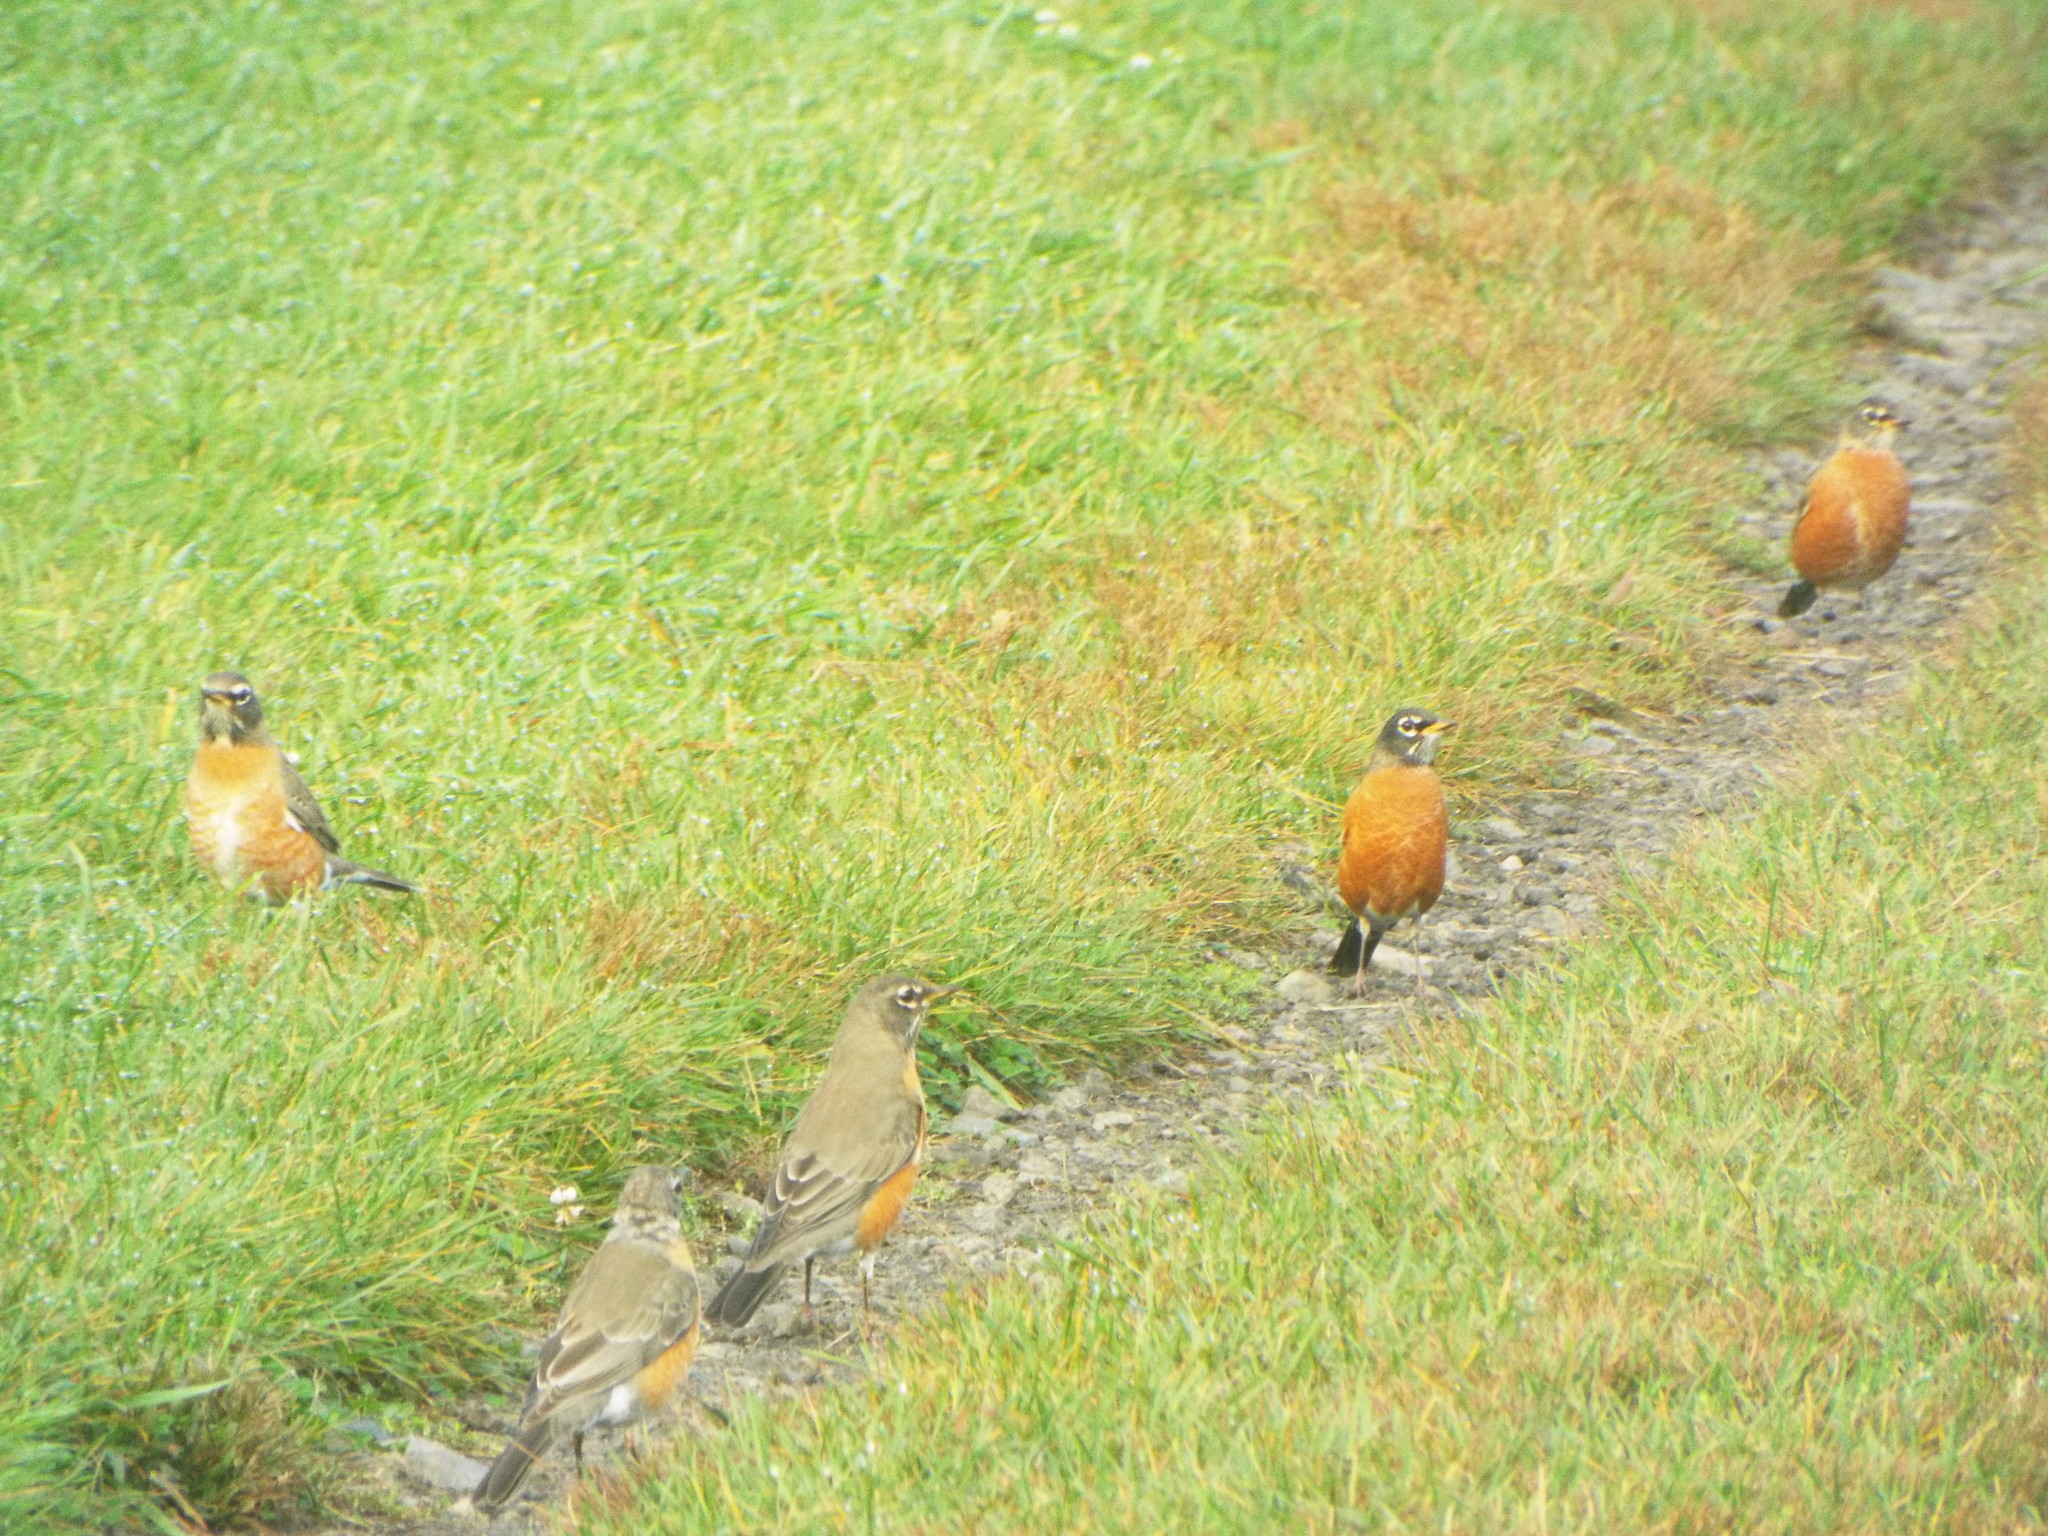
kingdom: Animalia
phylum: Chordata
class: Aves
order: Passeriformes
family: Turdidae
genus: Turdus
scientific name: Turdus migratorius
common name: American robin
